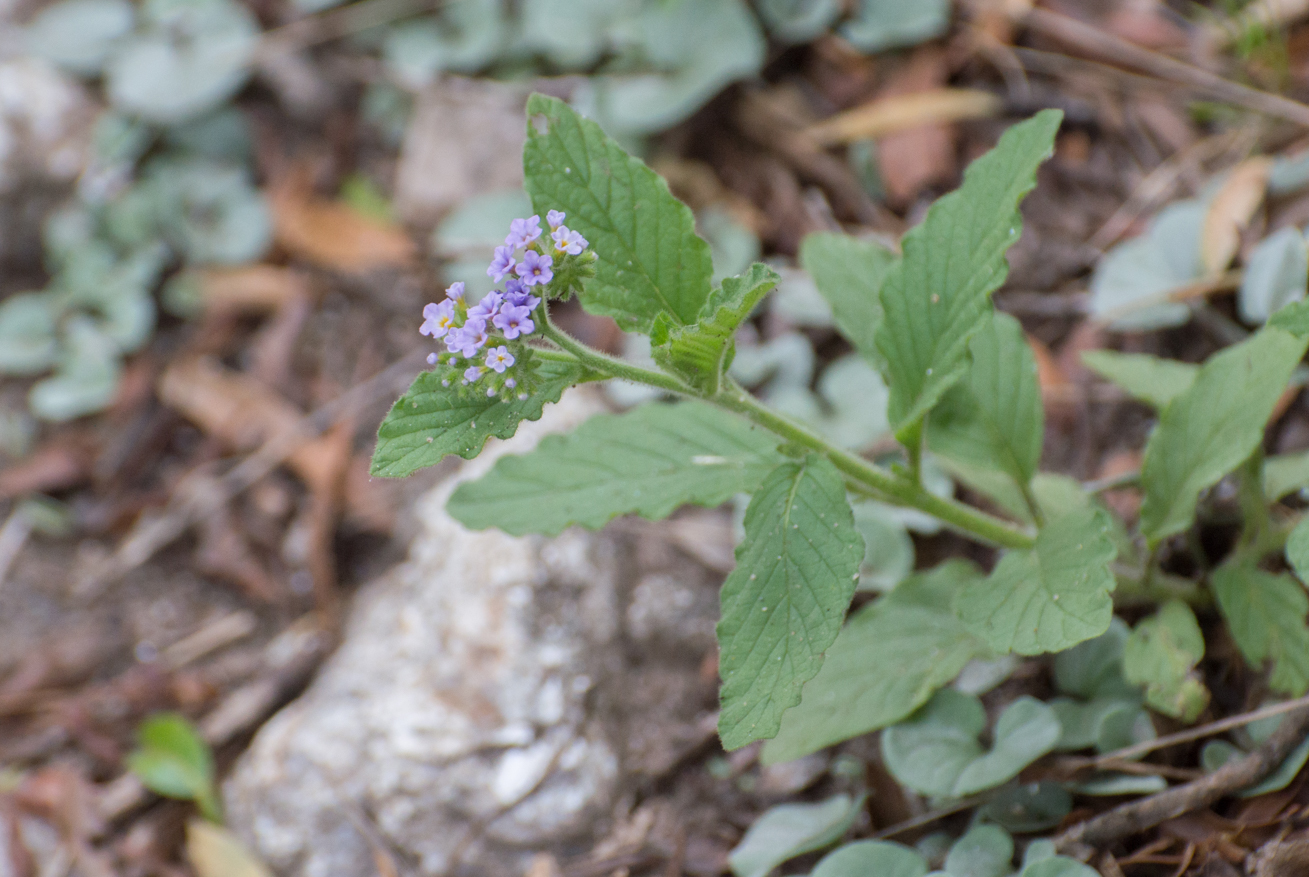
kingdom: Plantae
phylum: Tracheophyta
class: Magnoliopsida
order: Boraginales
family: Heliotropiaceae
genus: Heliotropium
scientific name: Heliotropium nicotianifolium
